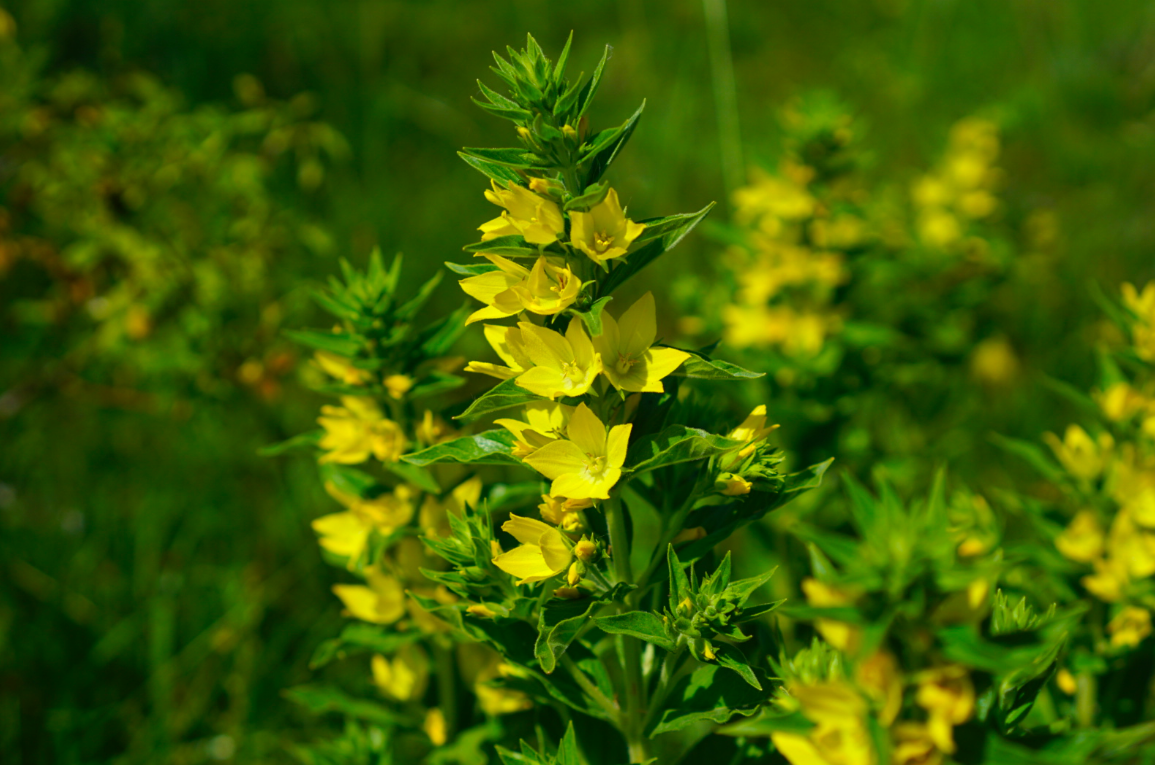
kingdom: Plantae
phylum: Tracheophyta
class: Magnoliopsida
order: Ericales
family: Primulaceae
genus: Lysimachia
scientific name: Lysimachia punctata
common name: Dotted loosestrife
